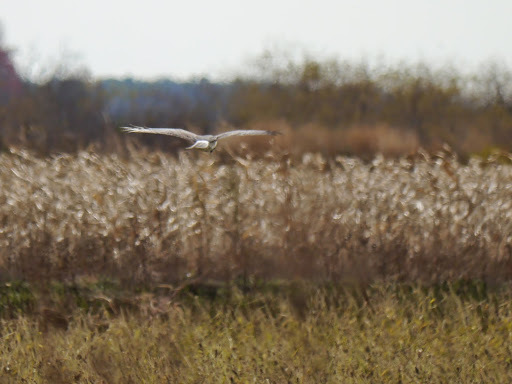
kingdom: Animalia
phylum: Chordata
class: Aves
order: Accipitriformes
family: Accipitridae
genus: Circus
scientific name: Circus cyaneus
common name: Hen harrier
